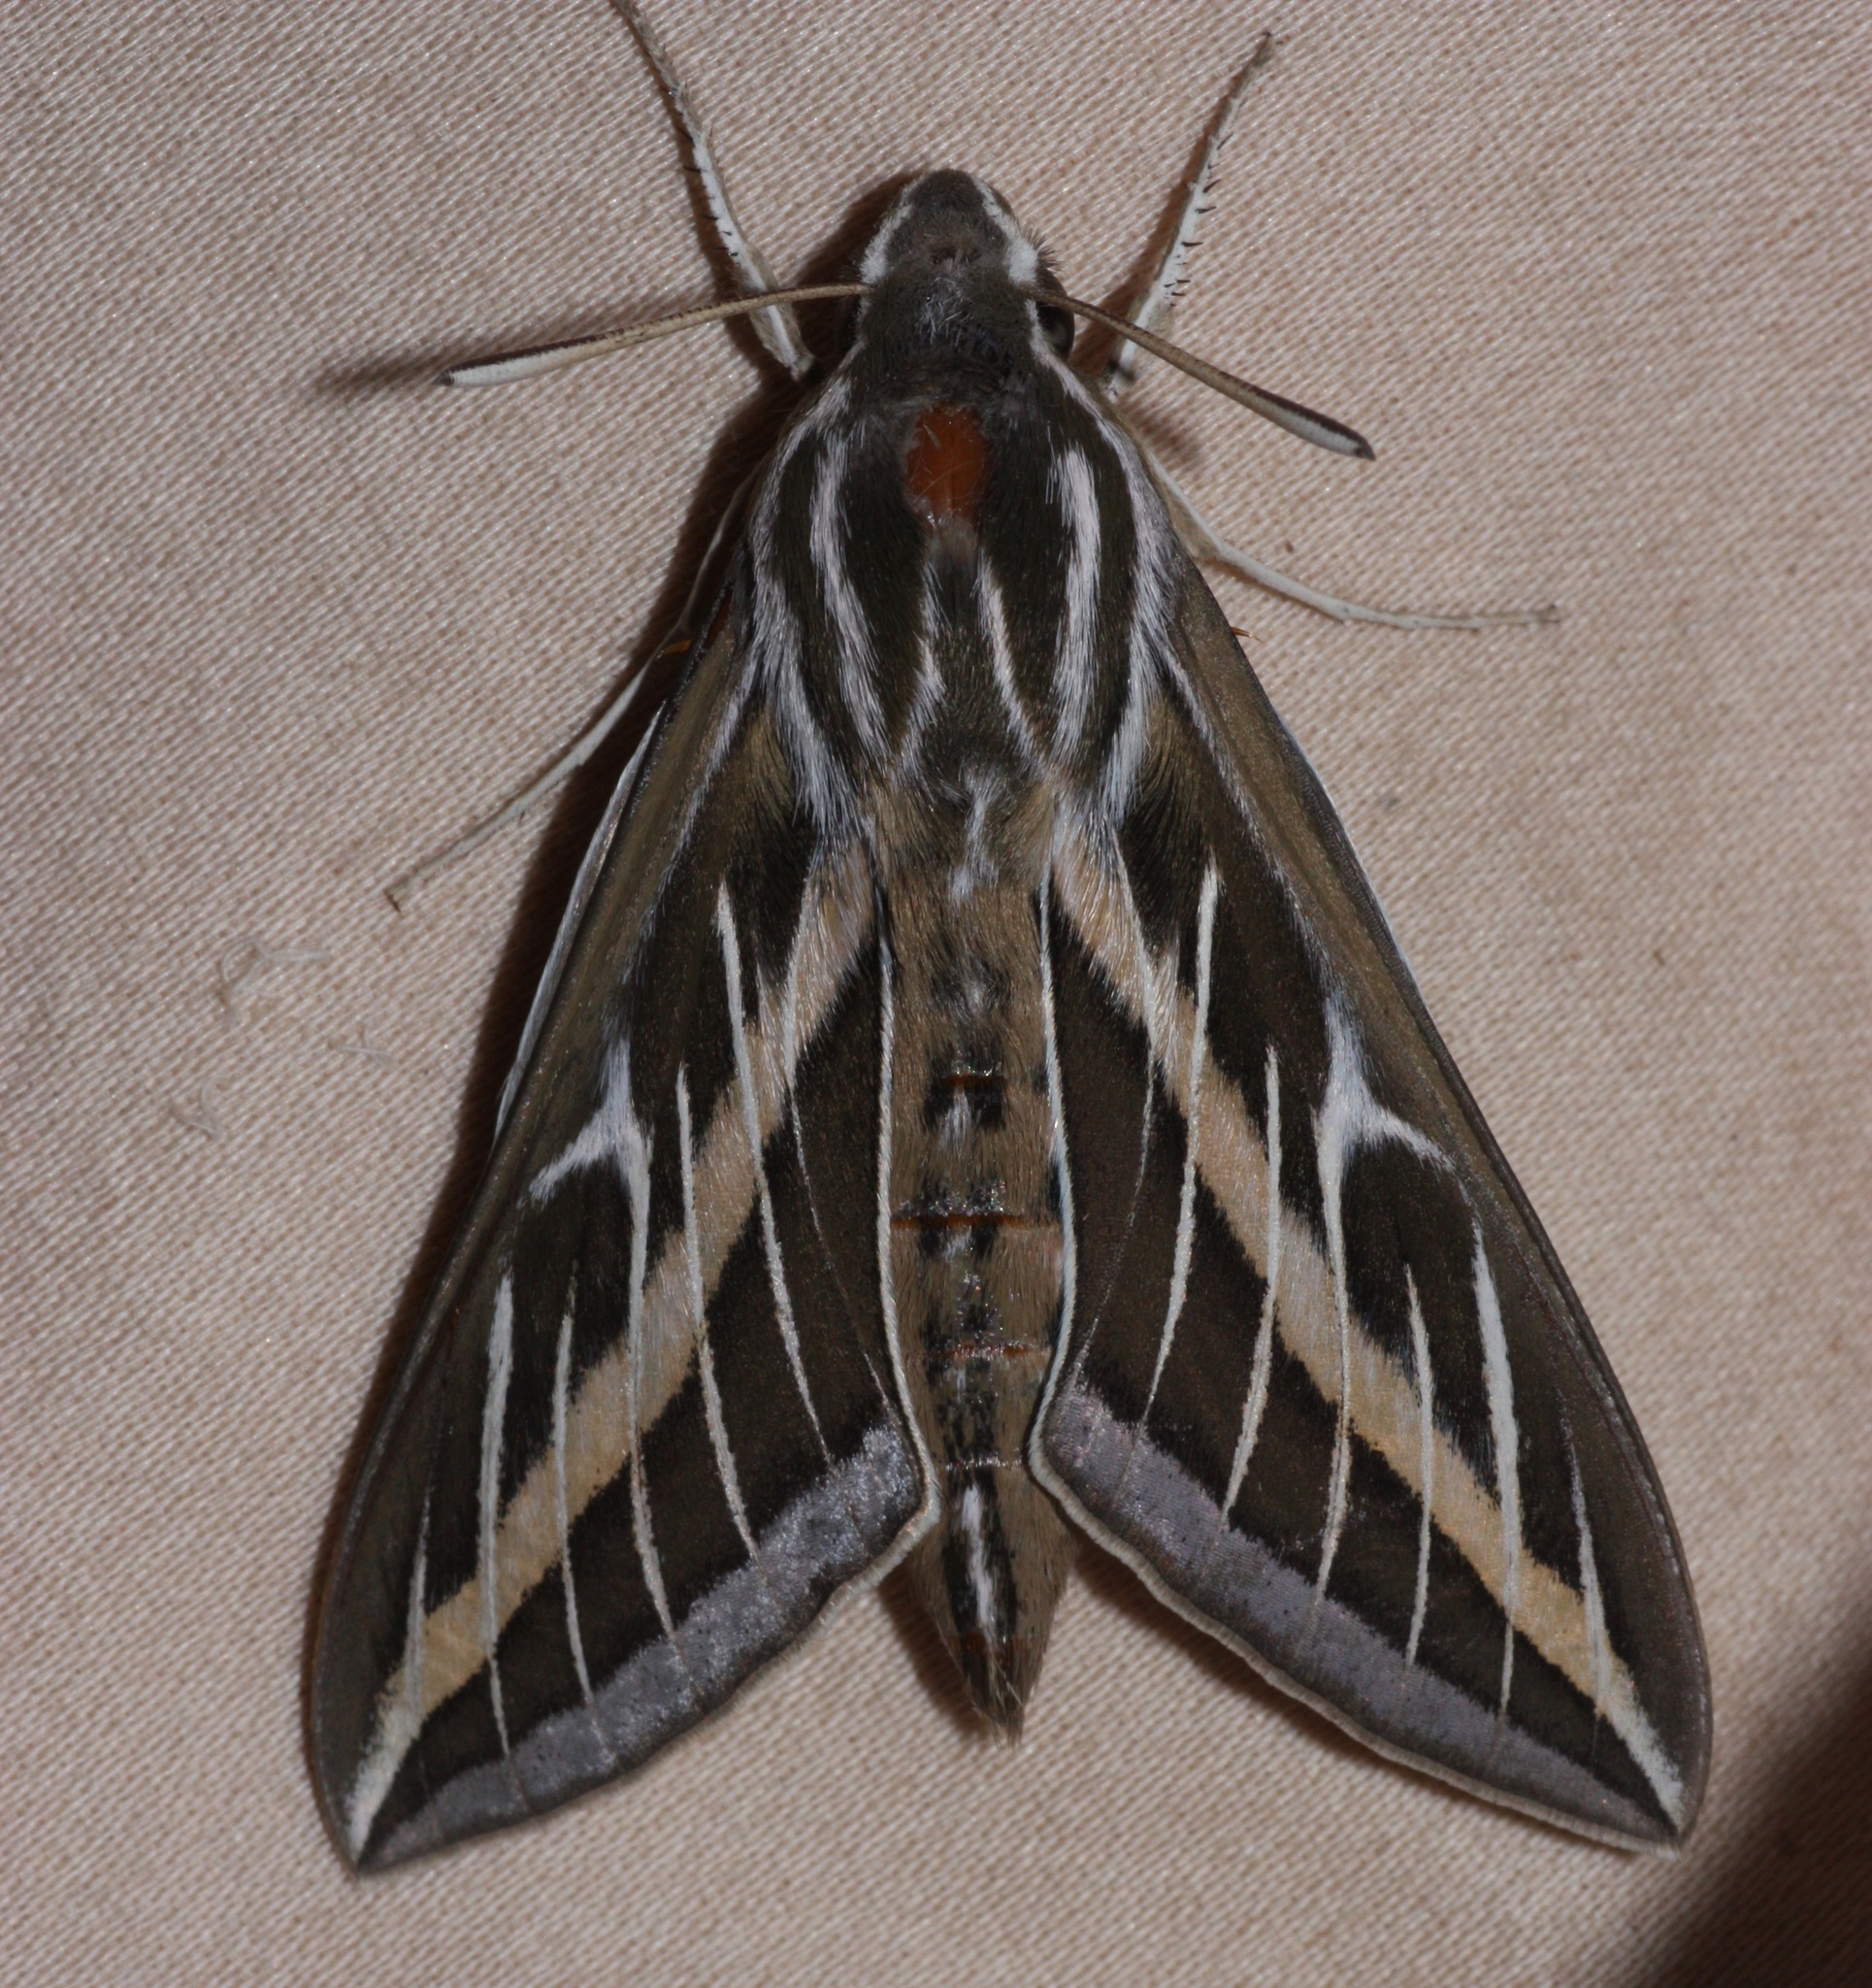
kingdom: Animalia
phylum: Arthropoda
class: Insecta
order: Lepidoptera
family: Sphingidae
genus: Hyles
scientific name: Hyles lineata
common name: White-lined sphinx
